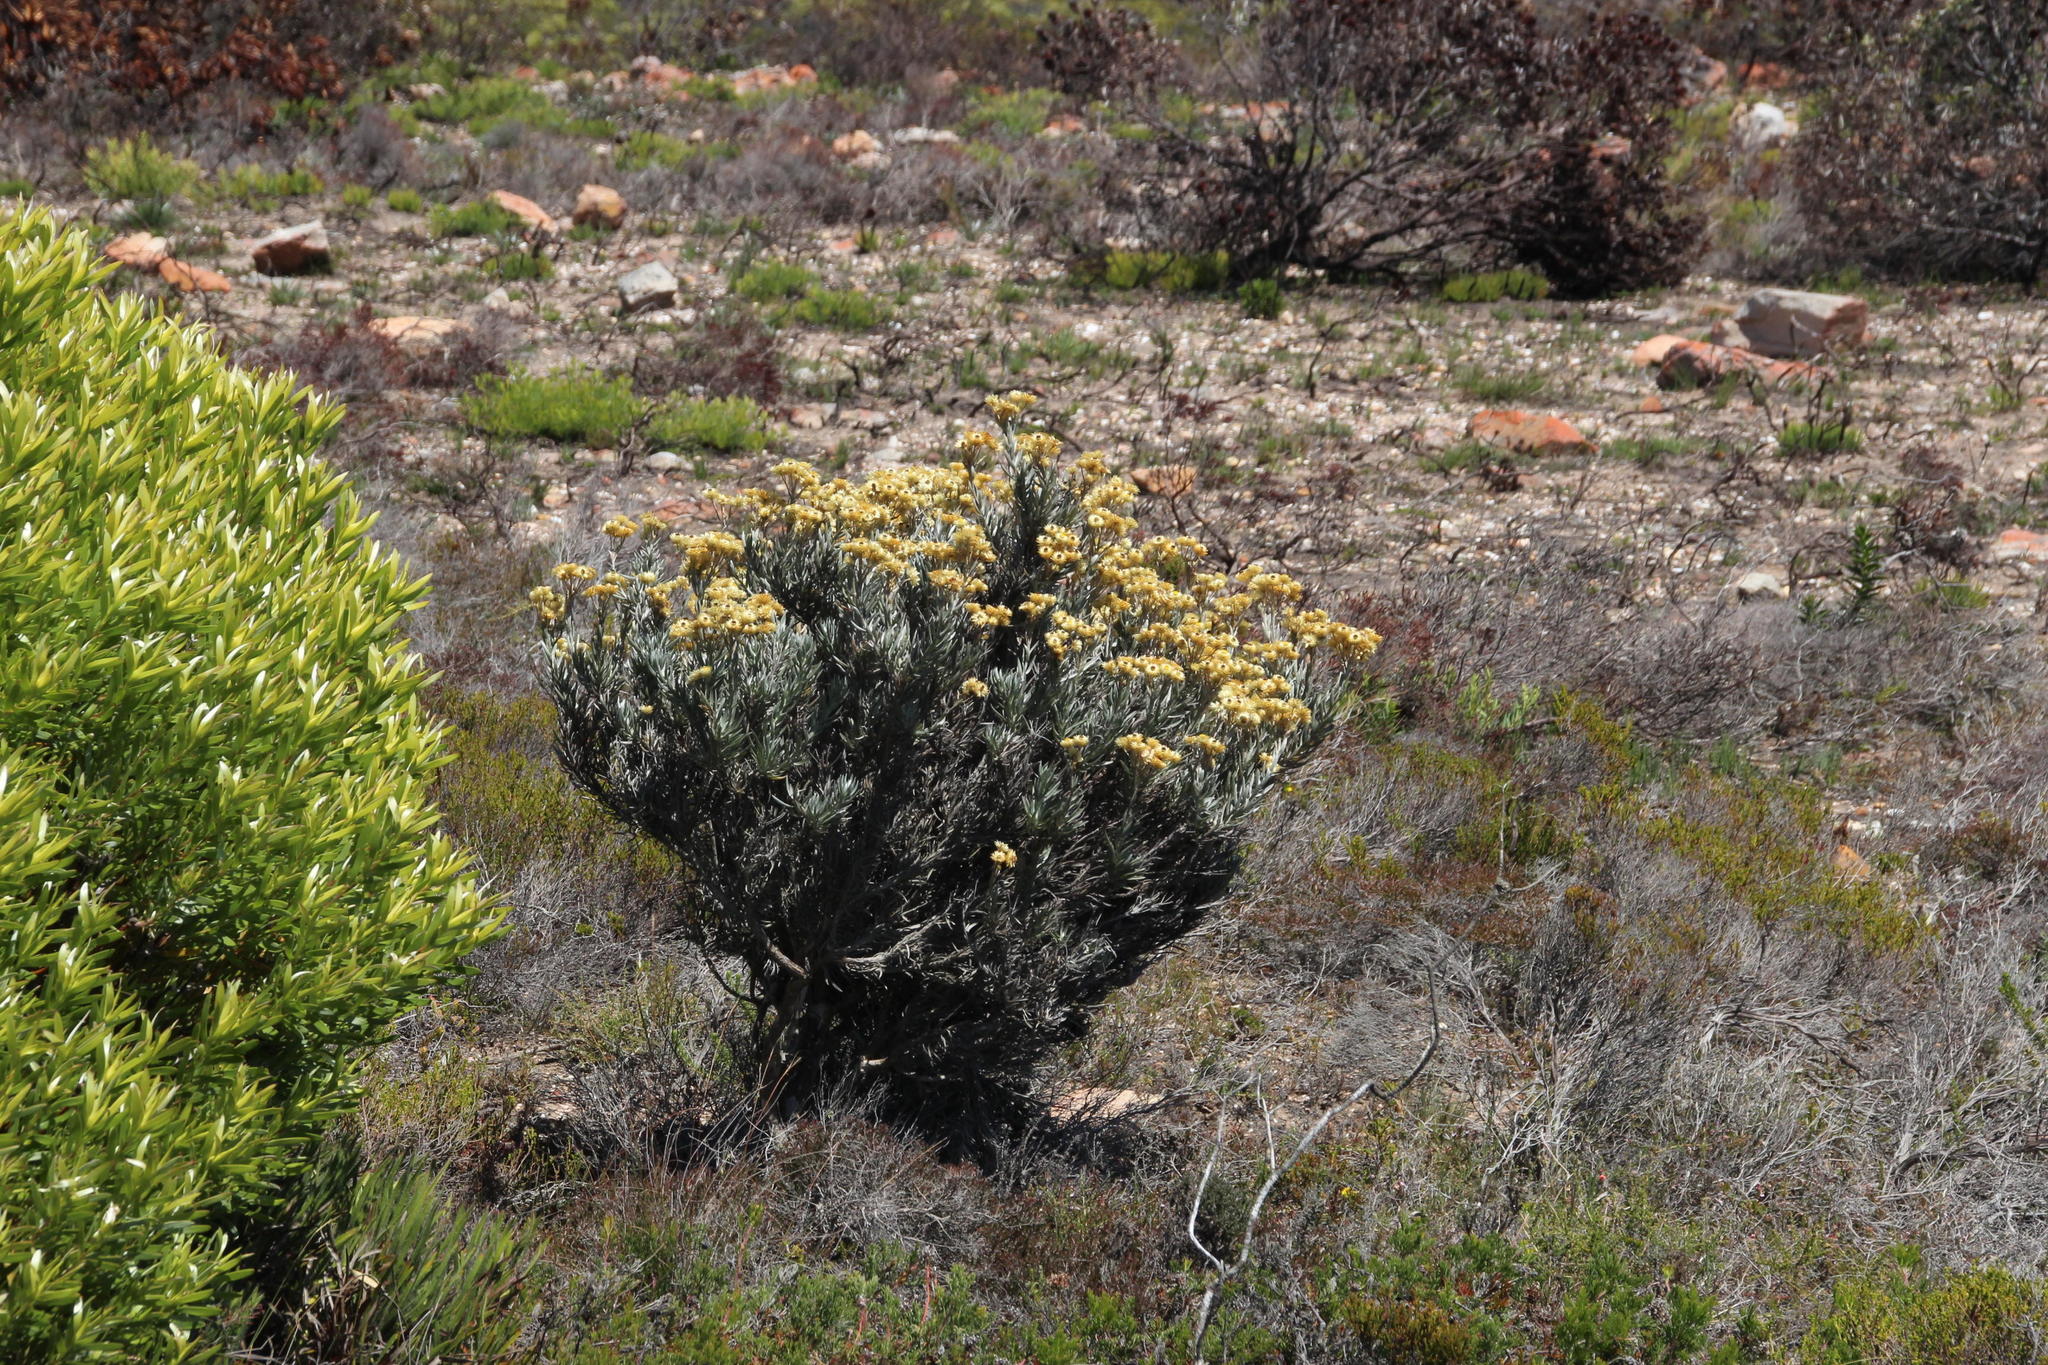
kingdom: Plantae
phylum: Tracheophyta
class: Magnoliopsida
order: Asterales
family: Asteraceae
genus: Achyranthemum
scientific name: Achyranthemum mucronatum
